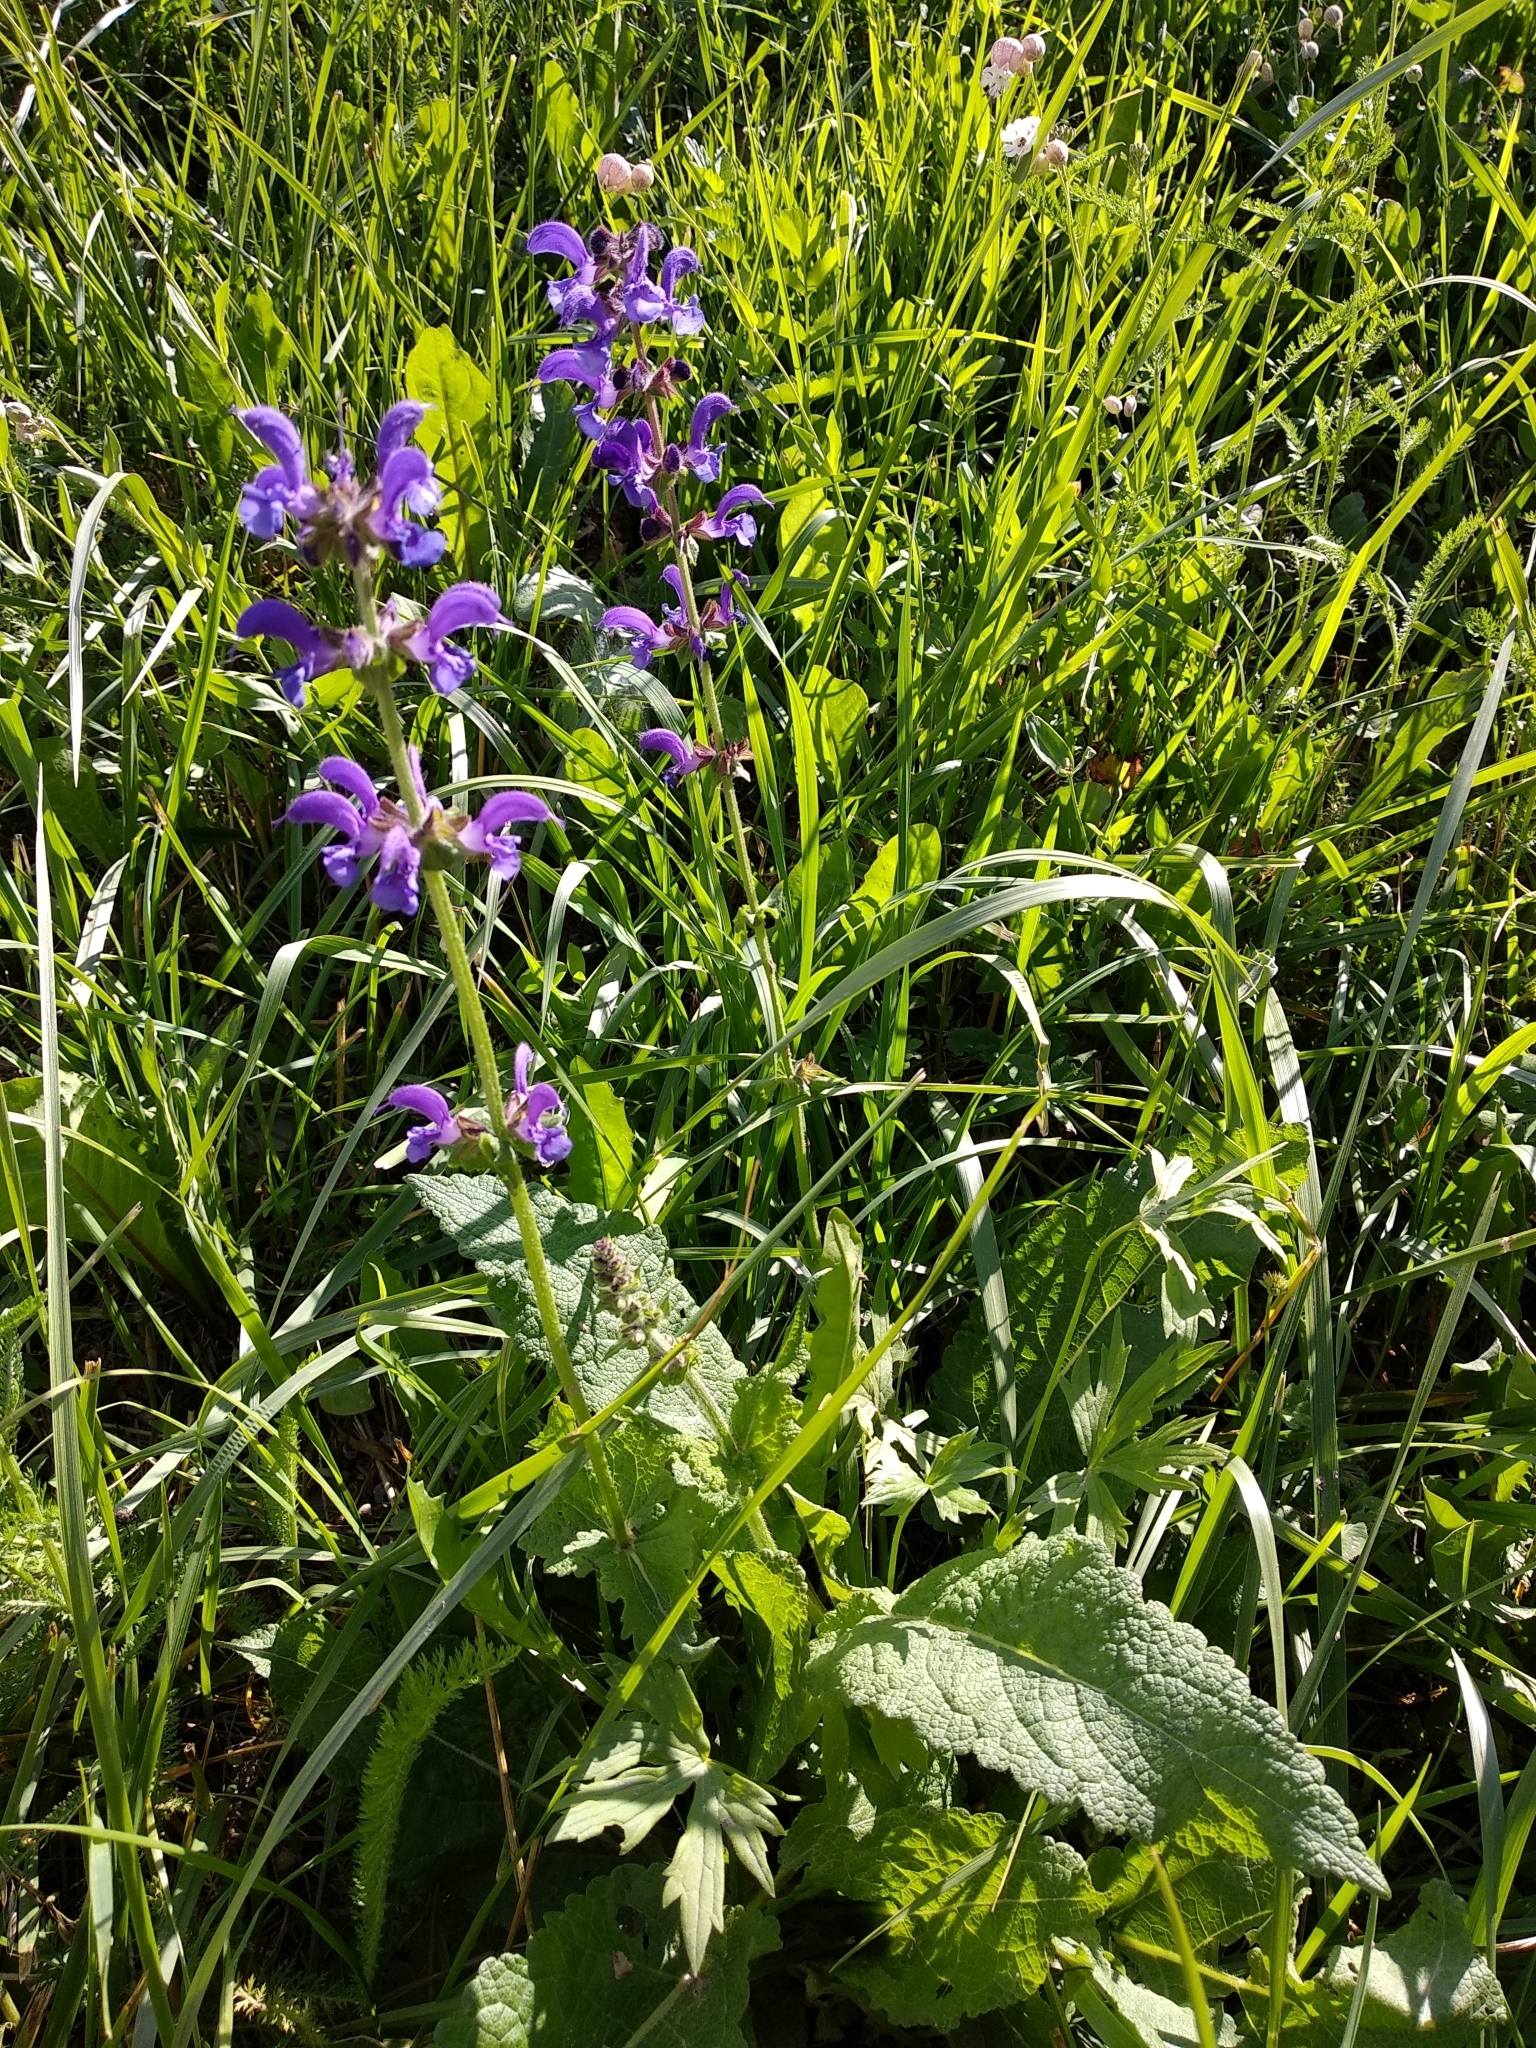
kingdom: Plantae
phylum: Tracheophyta
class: Magnoliopsida
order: Lamiales
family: Lamiaceae
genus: Salvia
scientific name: Salvia pratensis
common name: Meadow sage
